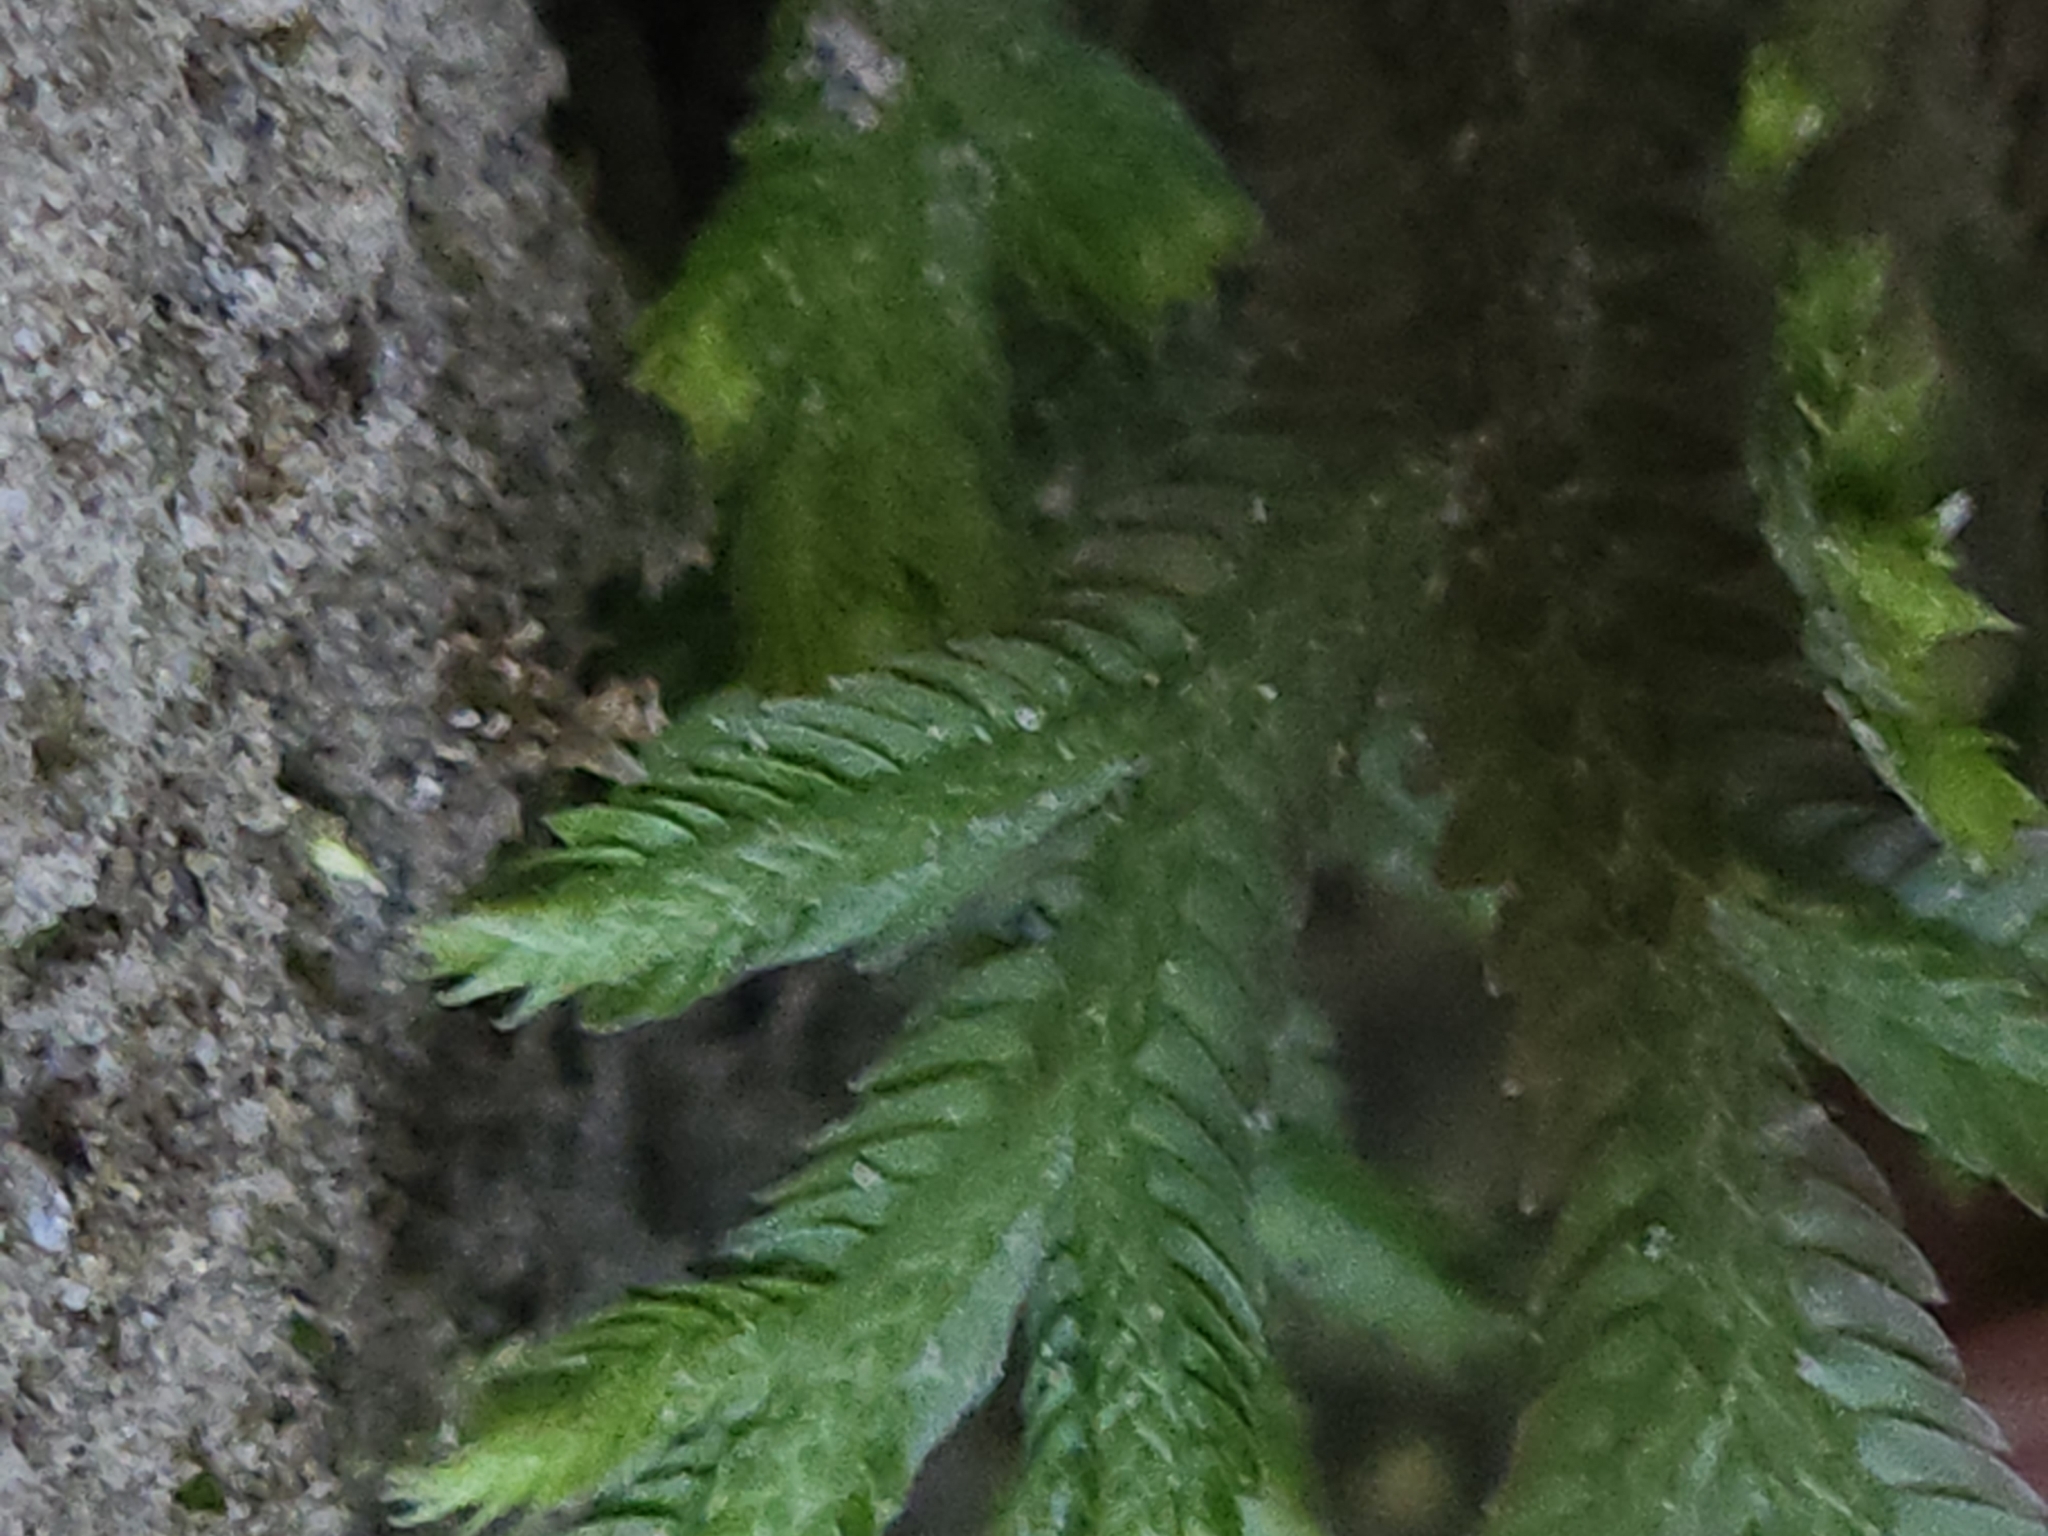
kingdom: Plantae
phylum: Tracheophyta
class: Lycopodiopsida
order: Selaginellales
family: Selaginellaceae
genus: Selaginella
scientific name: Selaginella repanda
